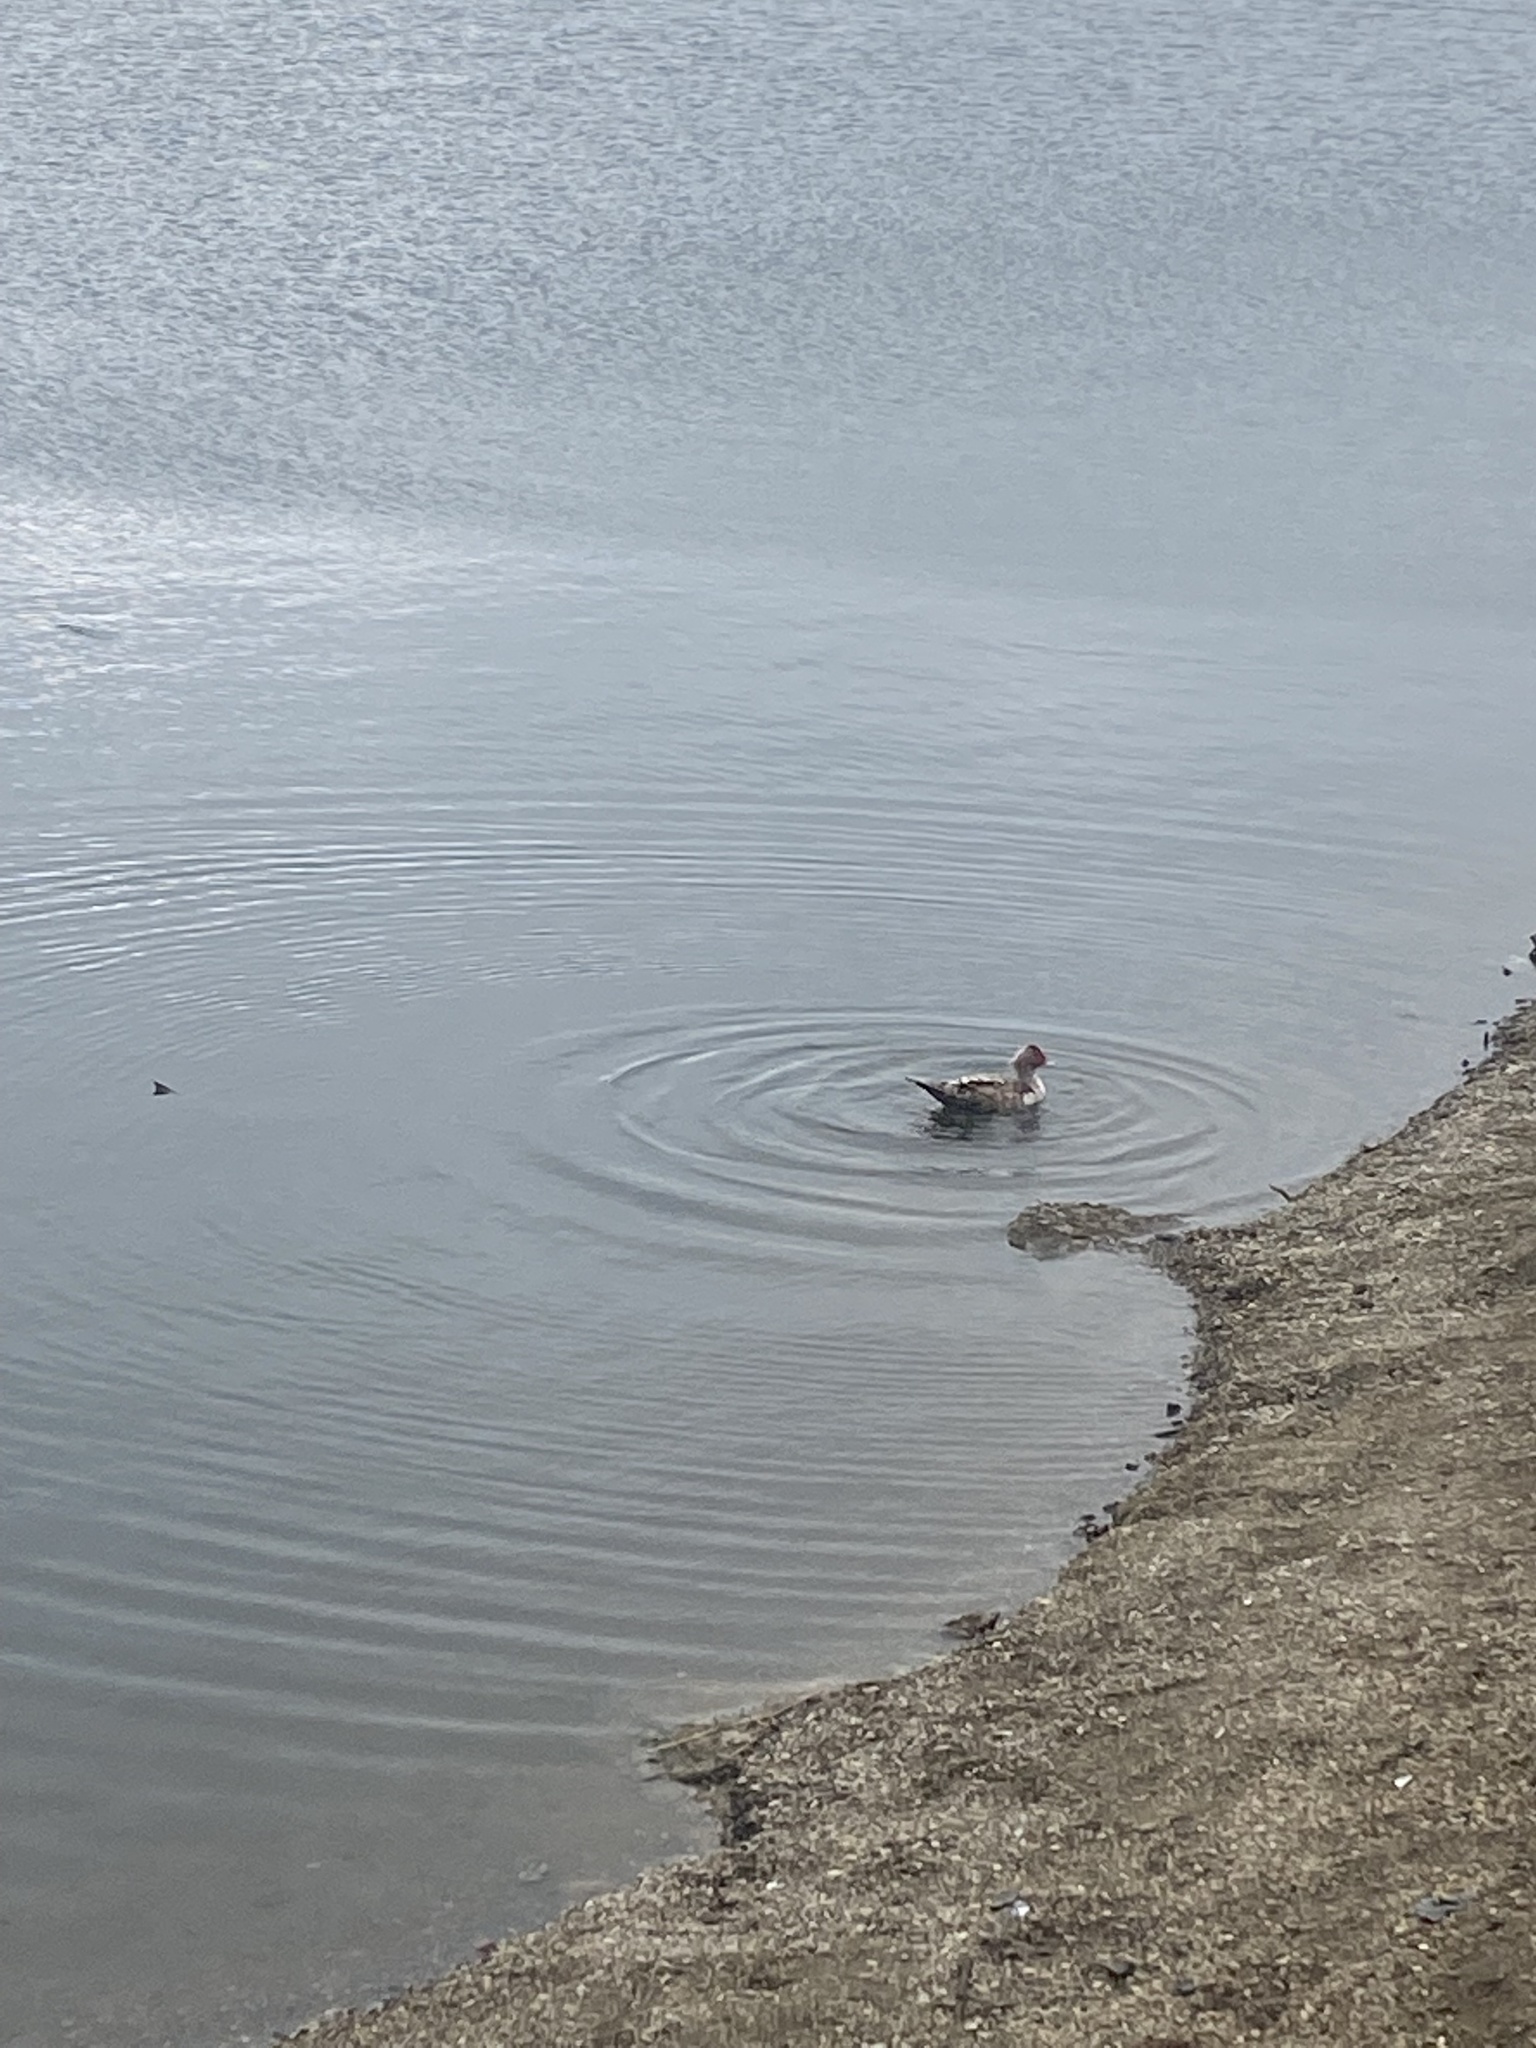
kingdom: Animalia
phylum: Chordata
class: Aves
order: Anseriformes
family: Anatidae
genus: Cairina
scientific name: Cairina moschata
